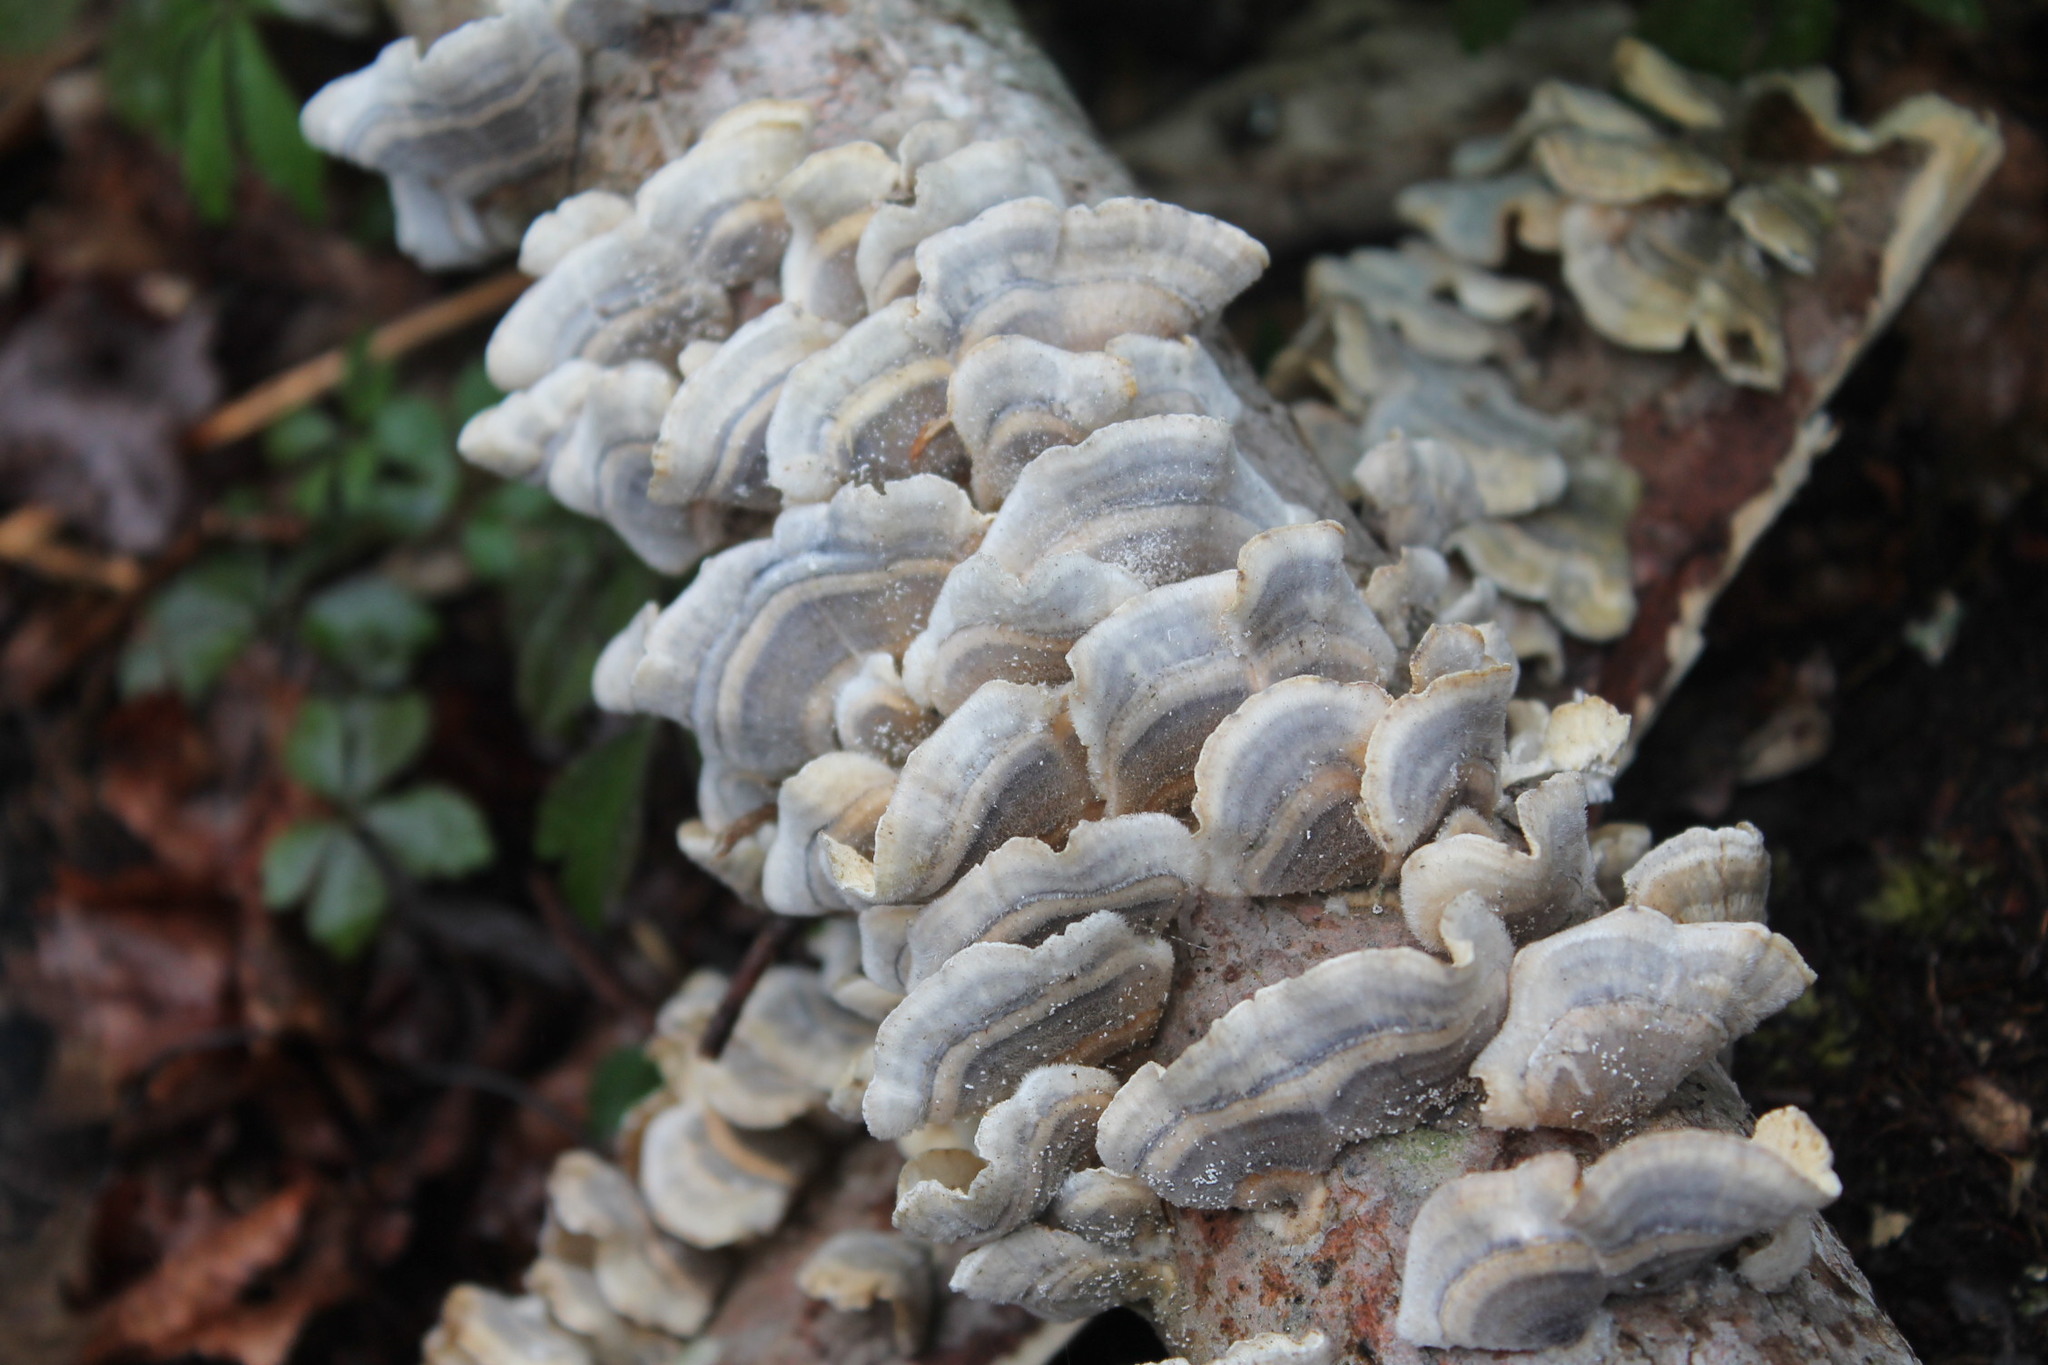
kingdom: Fungi
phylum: Basidiomycota
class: Agaricomycetes
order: Polyporales
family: Polyporaceae
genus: Trametes
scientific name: Trametes versicolor
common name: Turkeytail
